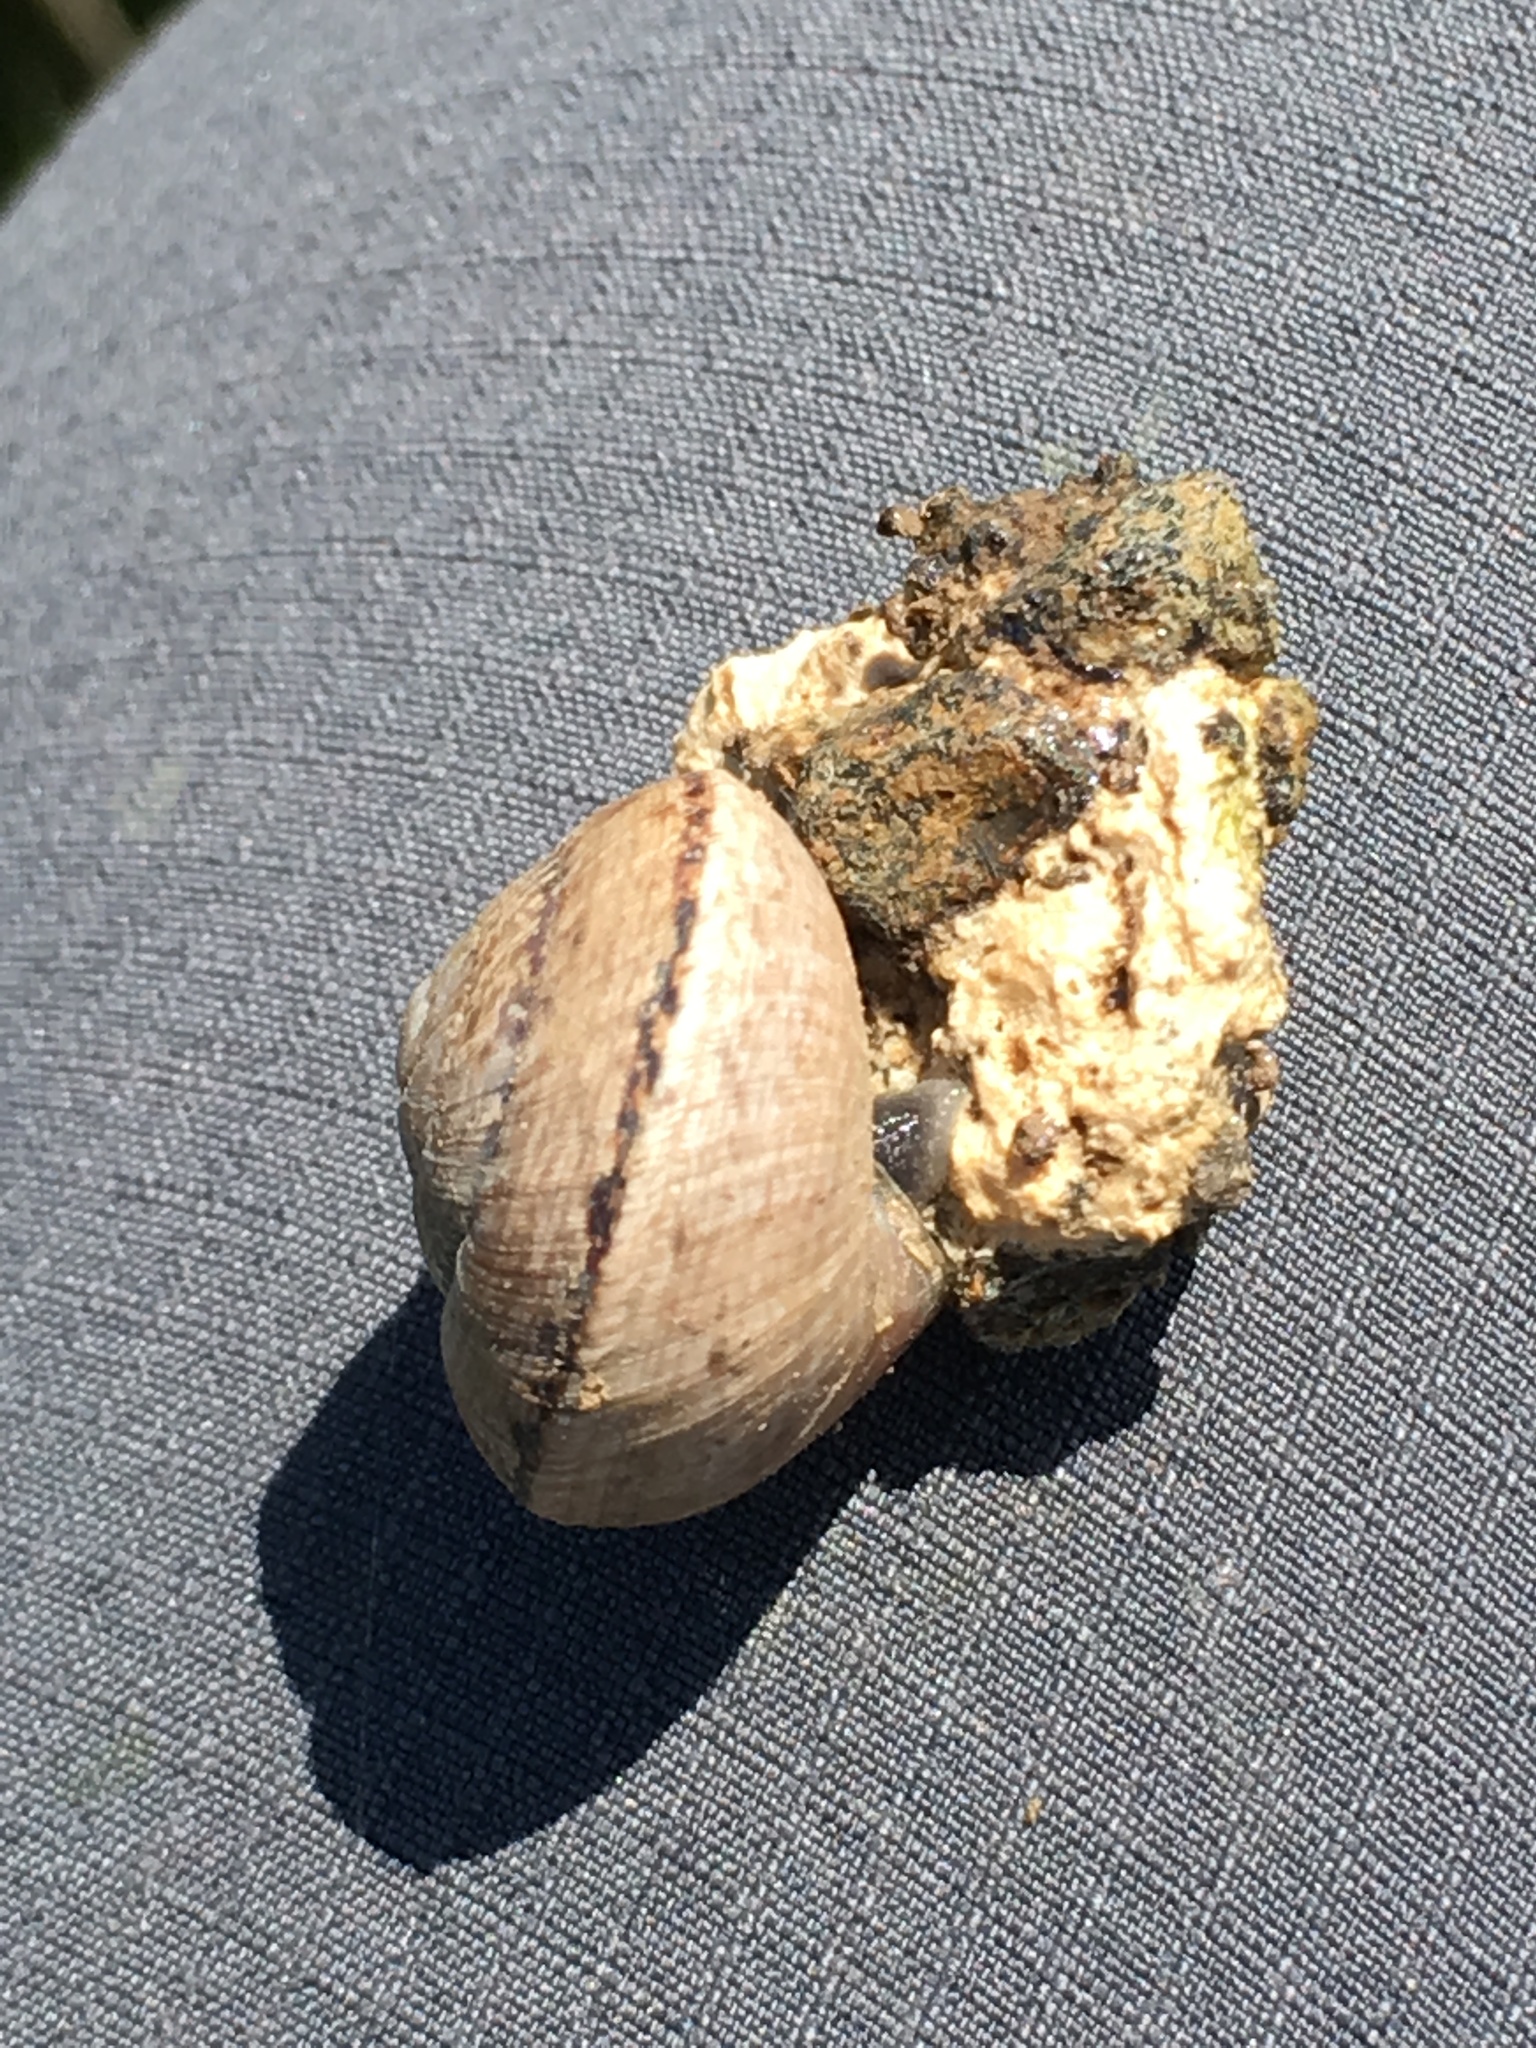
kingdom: Animalia
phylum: Mollusca
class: Gastropoda
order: Stylommatophora
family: Xanthonychidae
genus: Xerarionta
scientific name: Xerarionta tryoni
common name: Bicolor cactus snail
